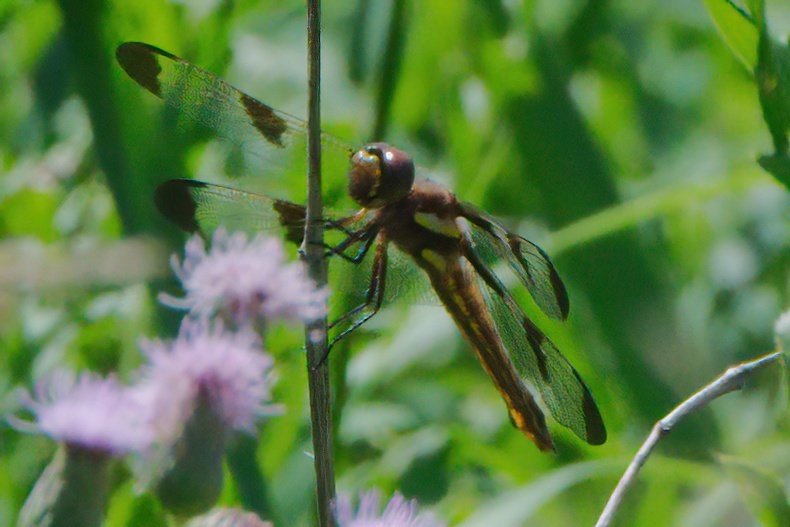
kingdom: Animalia
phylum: Arthropoda
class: Insecta
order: Odonata
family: Libellulidae
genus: Libellula
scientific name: Libellula pulchella
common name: Twelve-spotted skimmer
